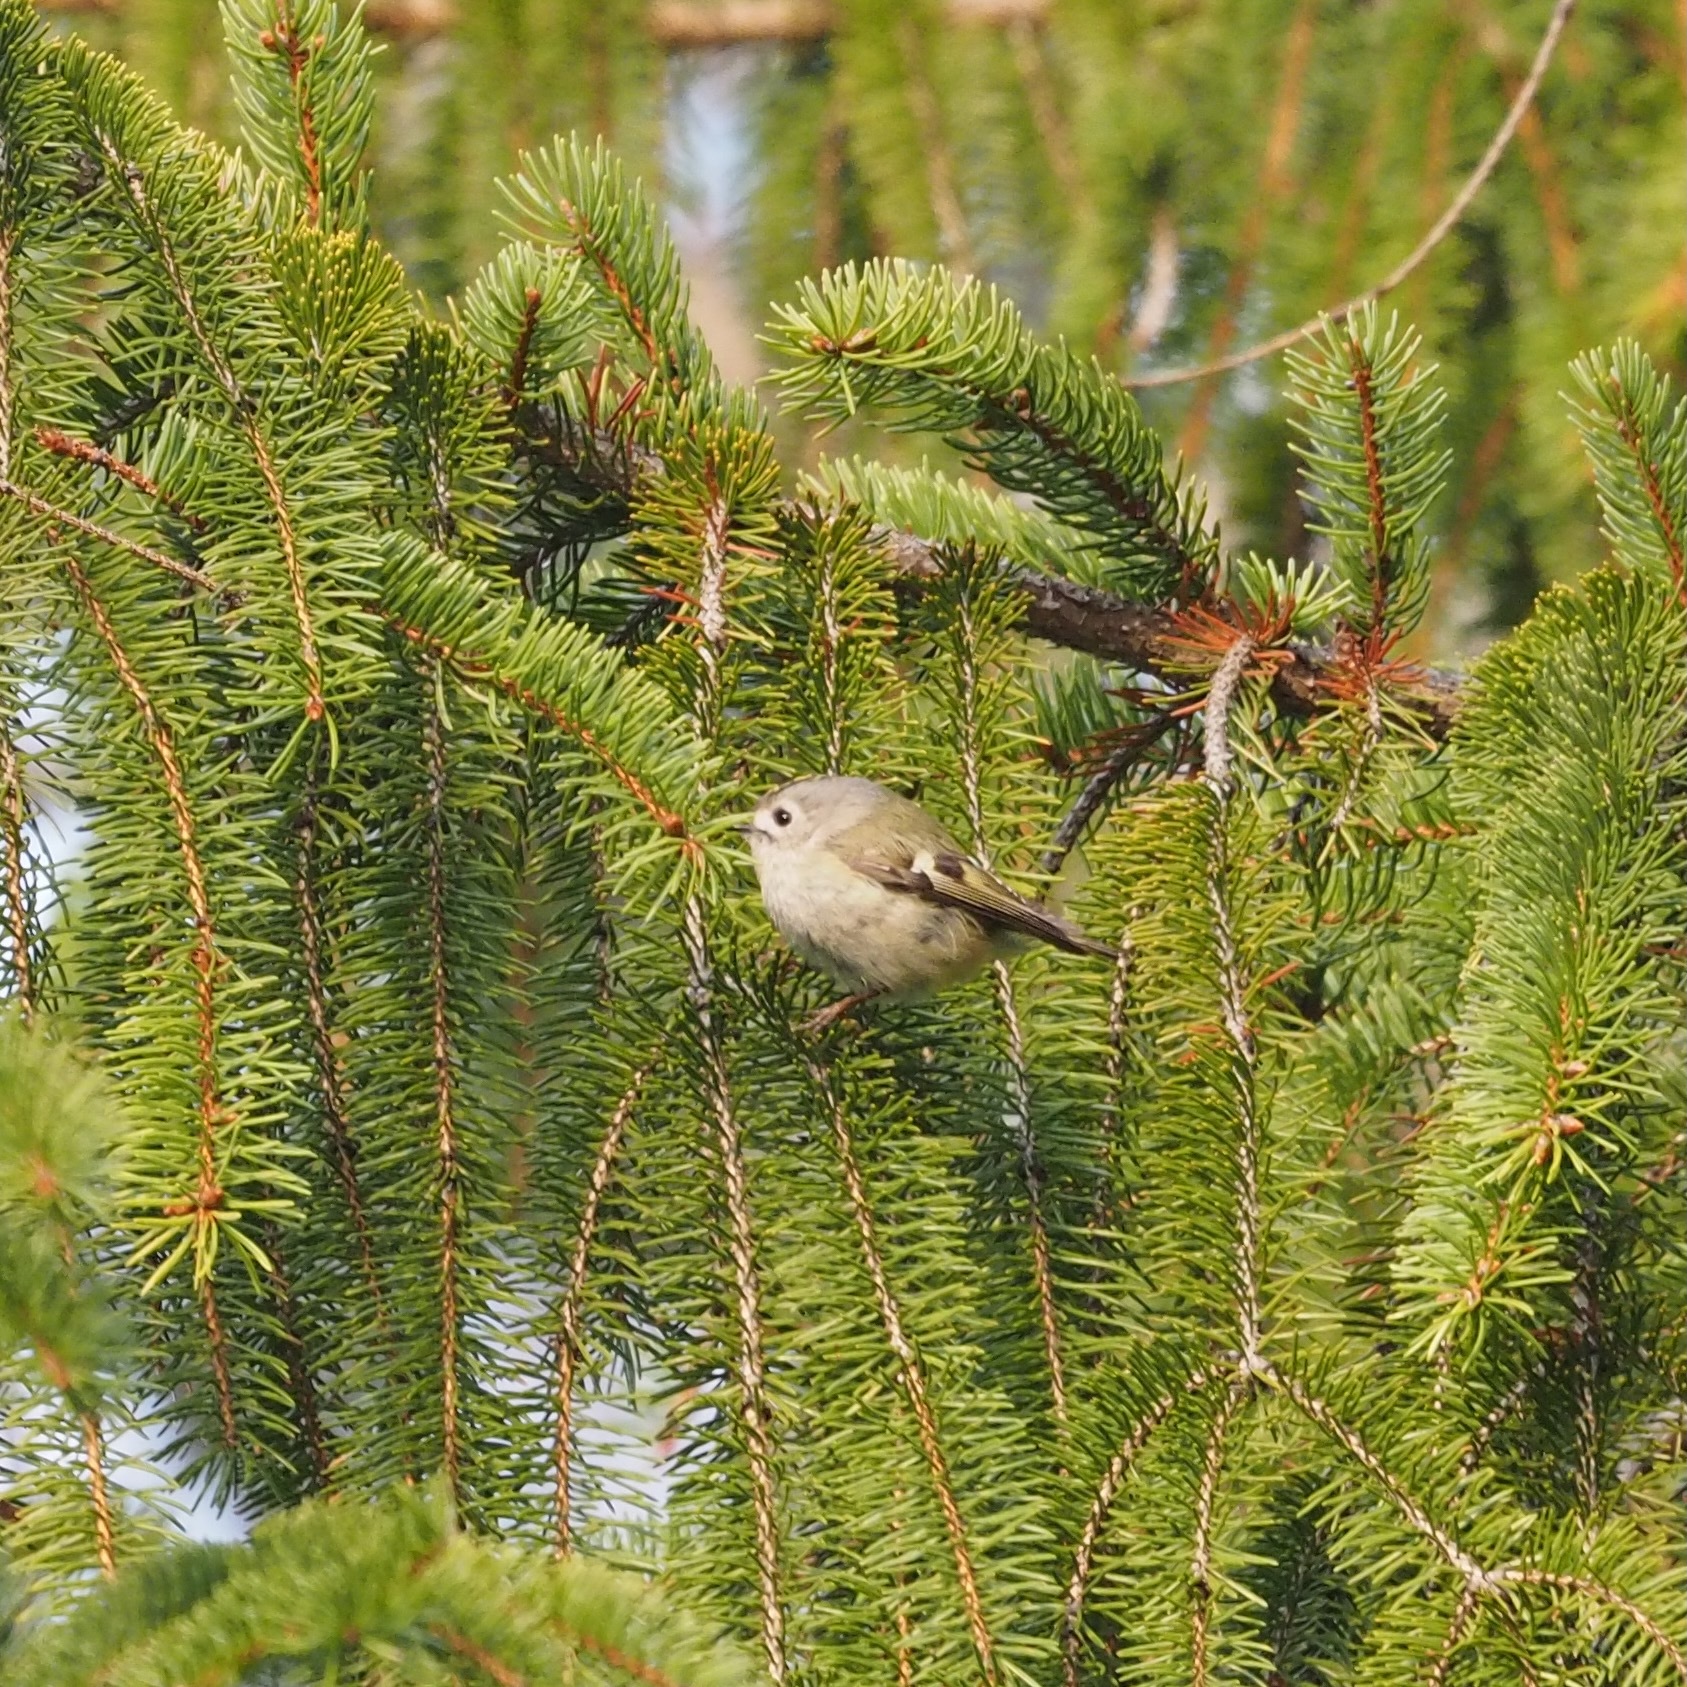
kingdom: Animalia
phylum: Chordata
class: Aves
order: Passeriformes
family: Regulidae
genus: Regulus
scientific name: Regulus regulus
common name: Goldcrest
